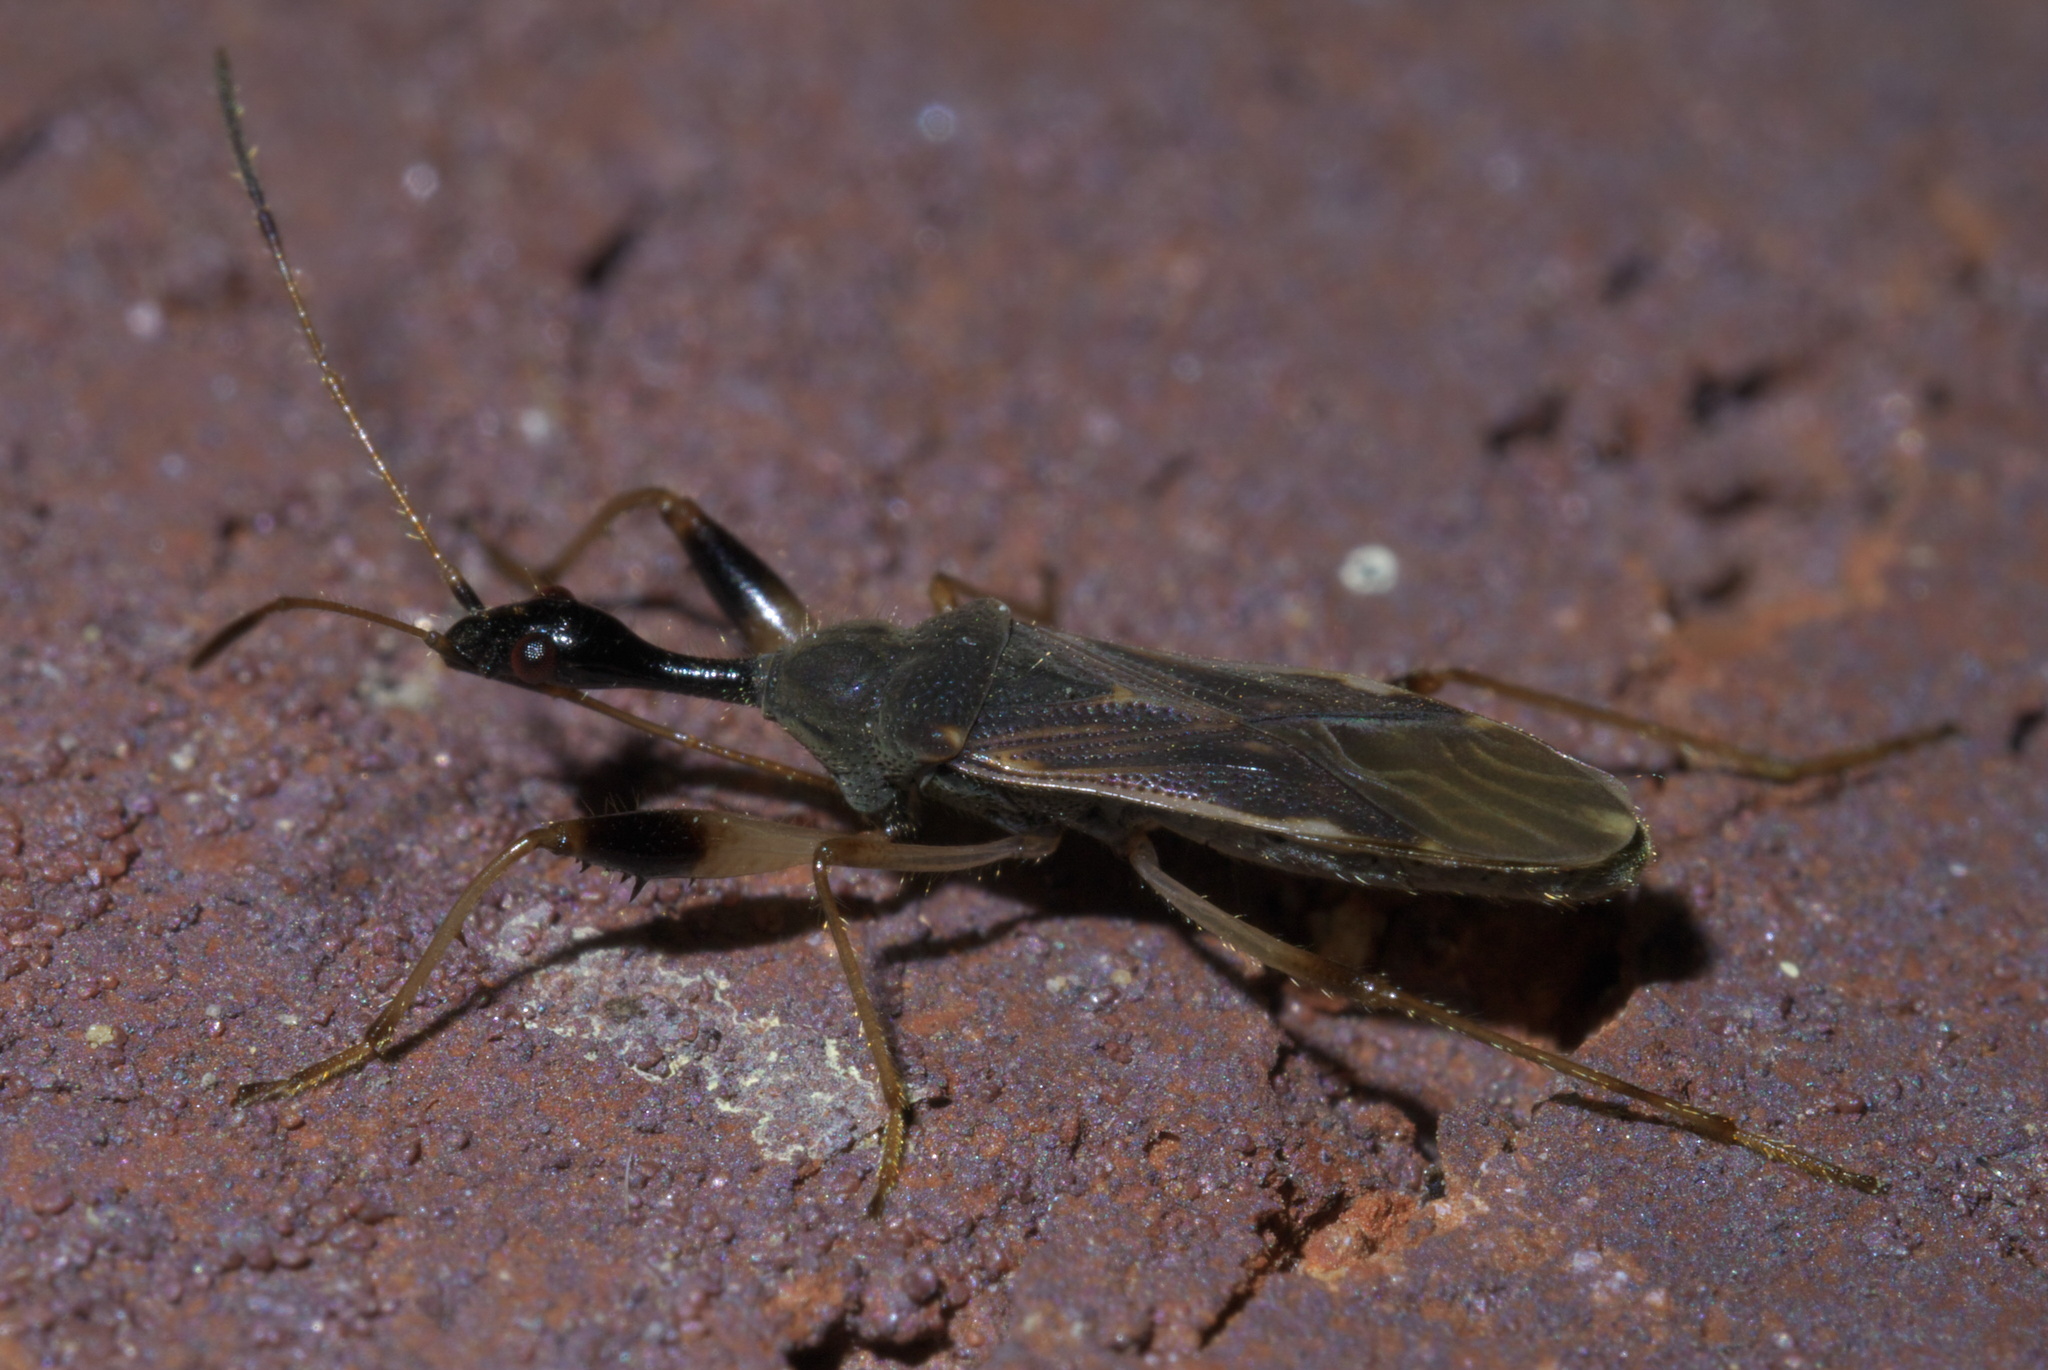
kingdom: Animalia
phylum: Arthropoda
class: Insecta
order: Hemiptera
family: Rhyparochromidae
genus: Myodocha
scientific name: Myodocha serripes
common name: Long-necked seed bug
